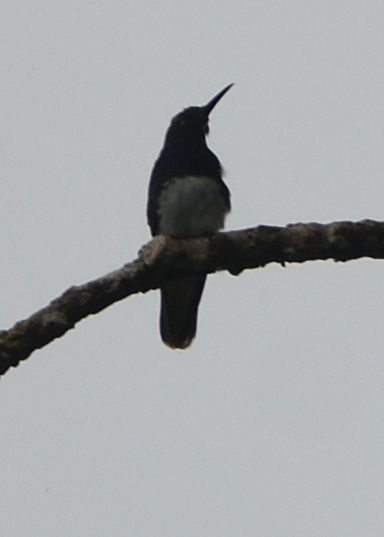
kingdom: Animalia
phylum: Chordata
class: Aves
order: Apodiformes
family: Trochilidae
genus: Florisuga
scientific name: Florisuga mellivora
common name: White-necked jacobin
